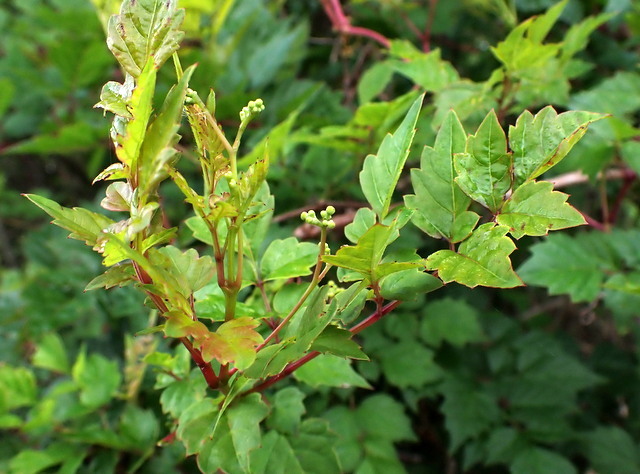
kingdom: Plantae
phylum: Tracheophyta
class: Magnoliopsida
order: Vitales
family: Vitaceae
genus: Nekemias
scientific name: Nekemias arborea
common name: Peppervine
